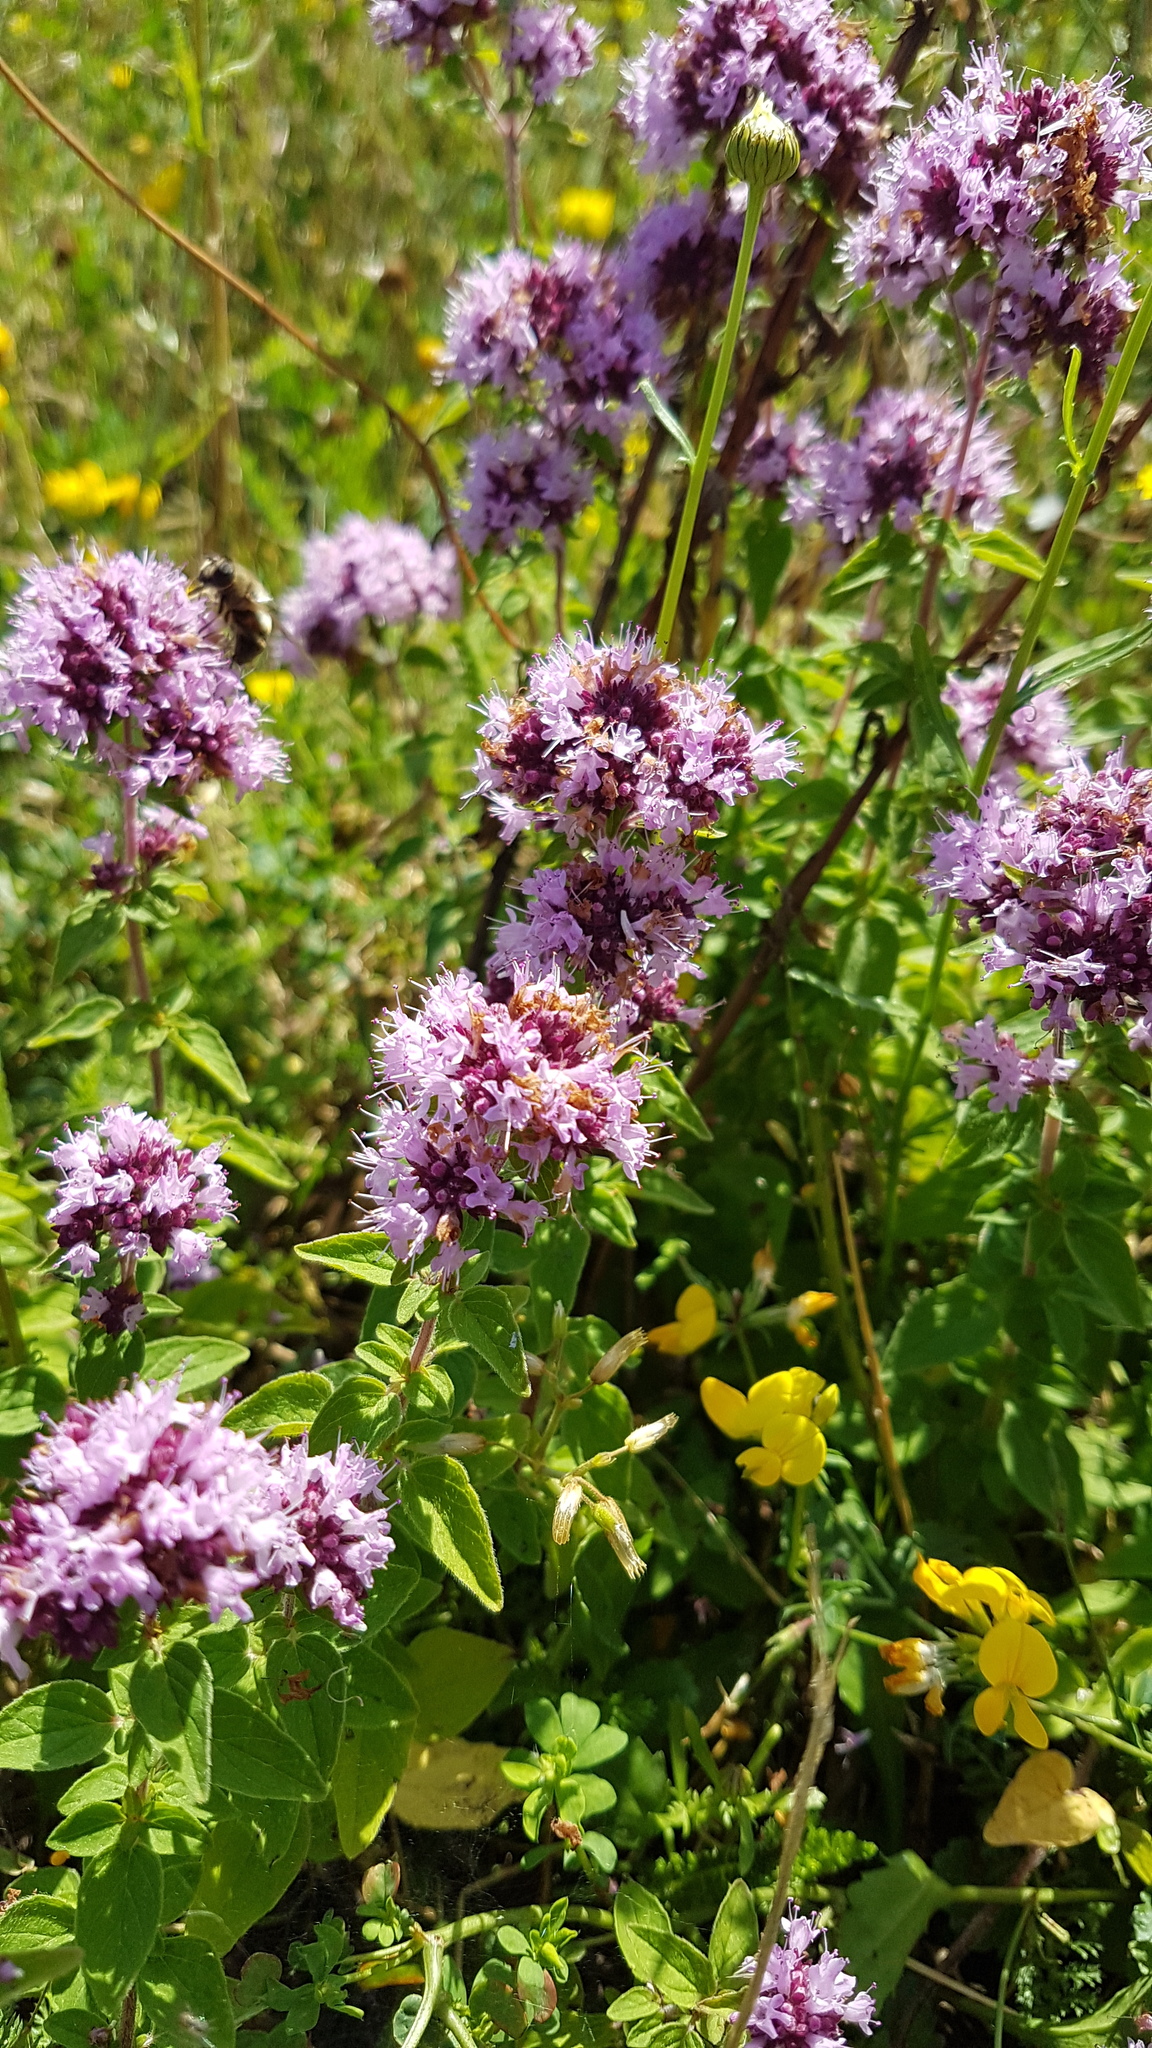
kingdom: Plantae
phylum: Tracheophyta
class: Magnoliopsida
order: Lamiales
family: Lamiaceae
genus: Origanum
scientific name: Origanum vulgare
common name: Wild marjoram
